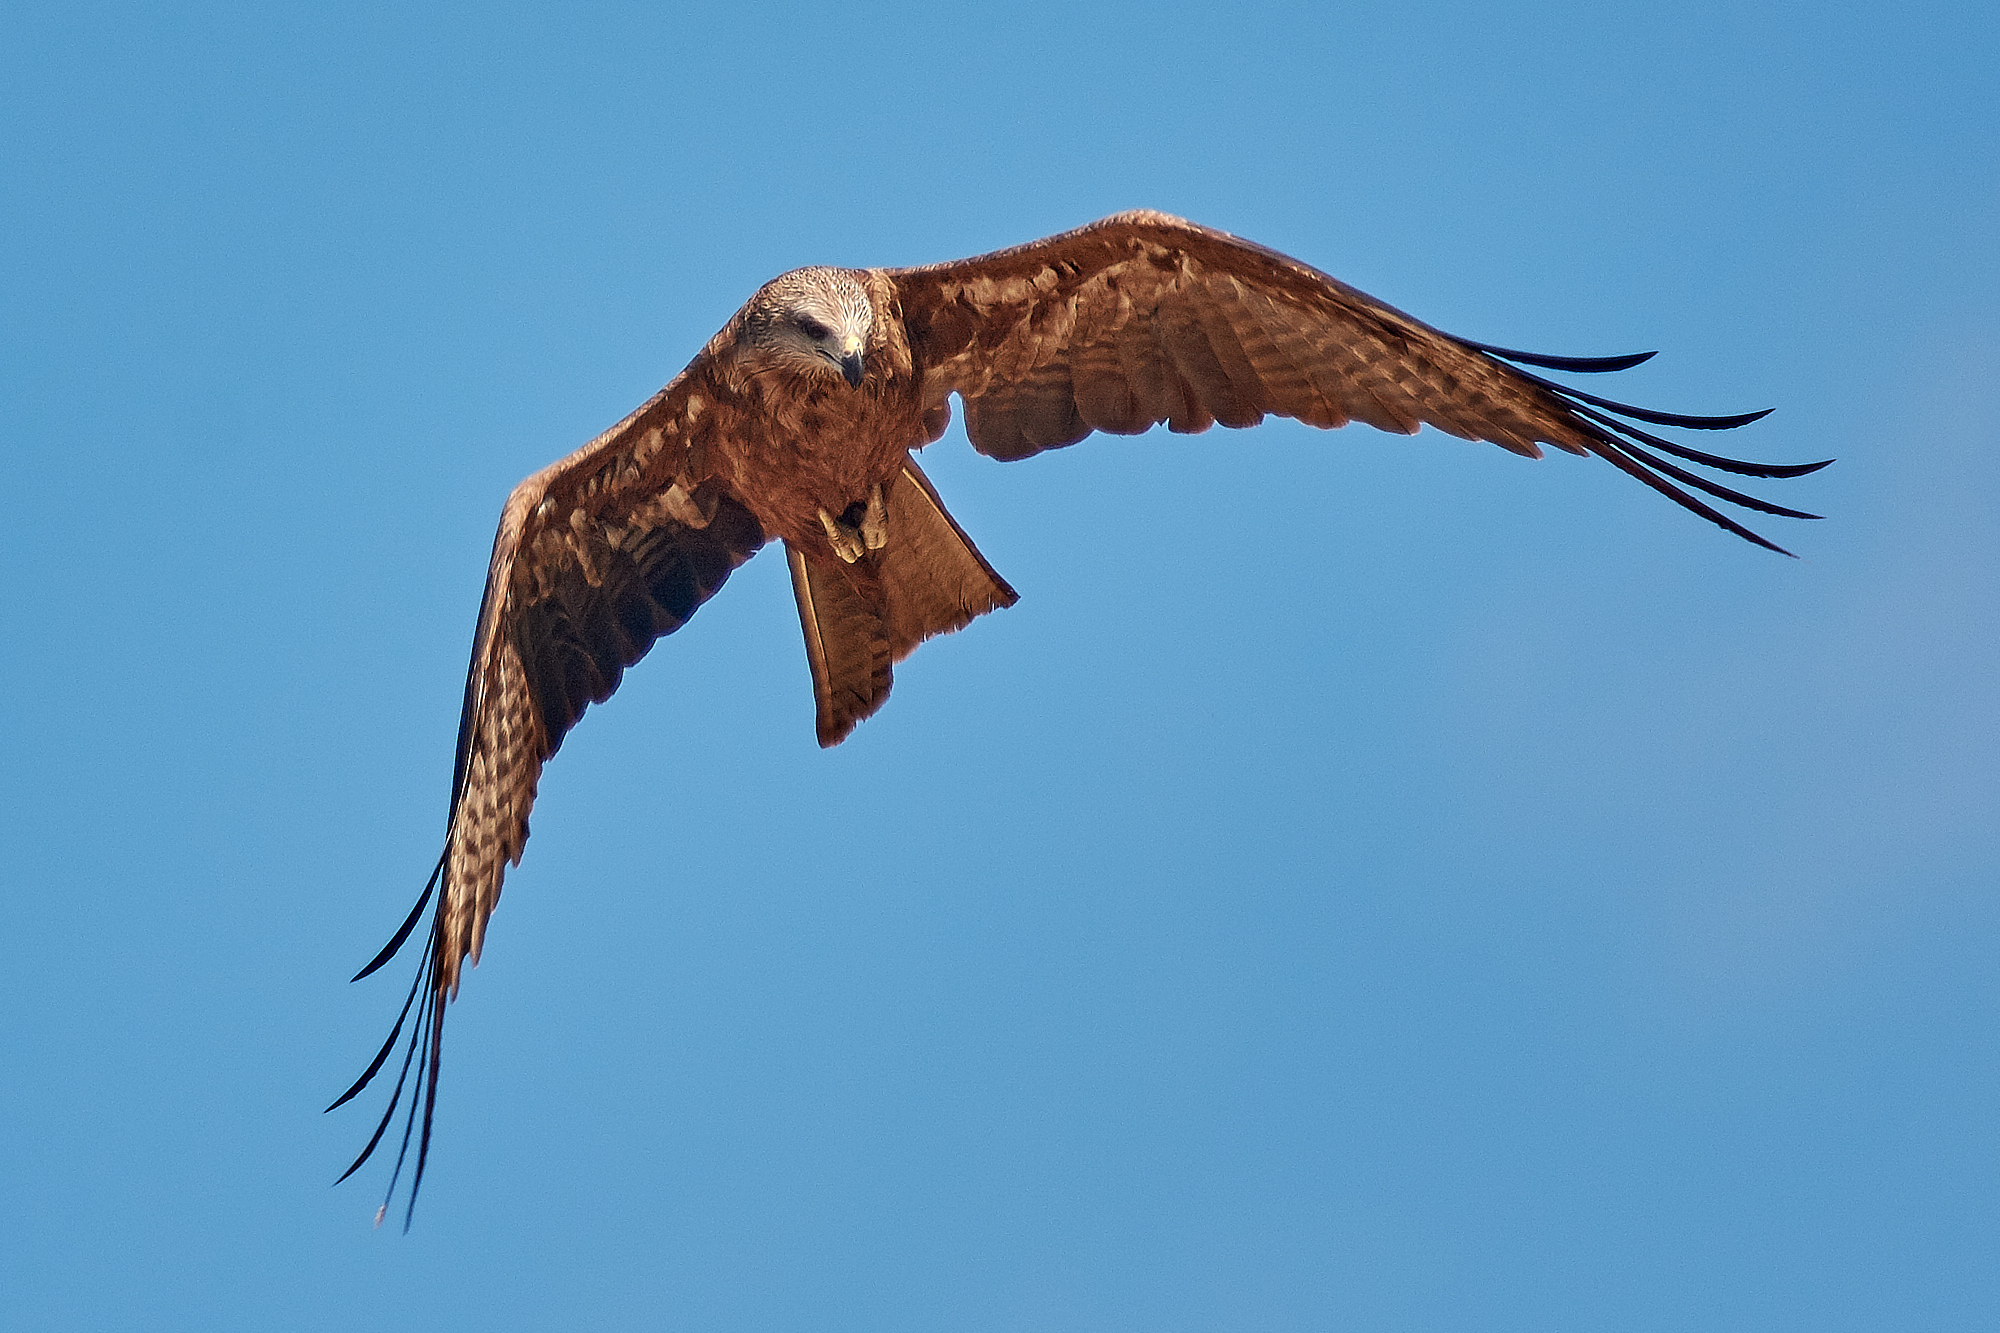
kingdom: Animalia
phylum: Chordata
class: Aves
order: Accipitriformes
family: Accipitridae
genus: Milvus
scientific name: Milvus migrans
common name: Black kite
